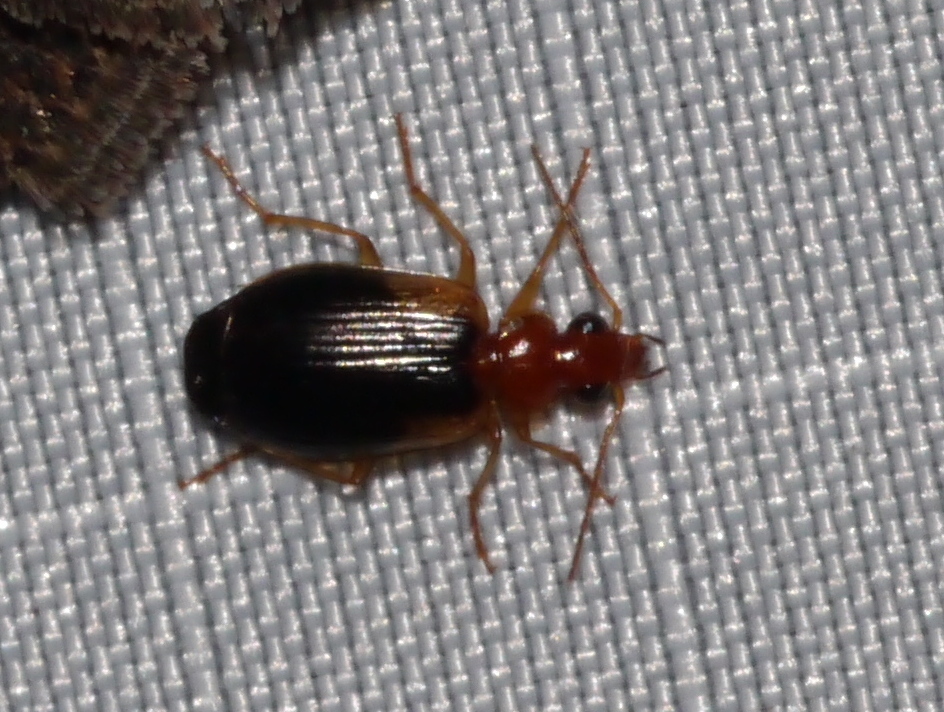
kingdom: Animalia
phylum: Arthropoda
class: Insecta
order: Coleoptera
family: Carabidae
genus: Lebia
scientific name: Lebia scapula
